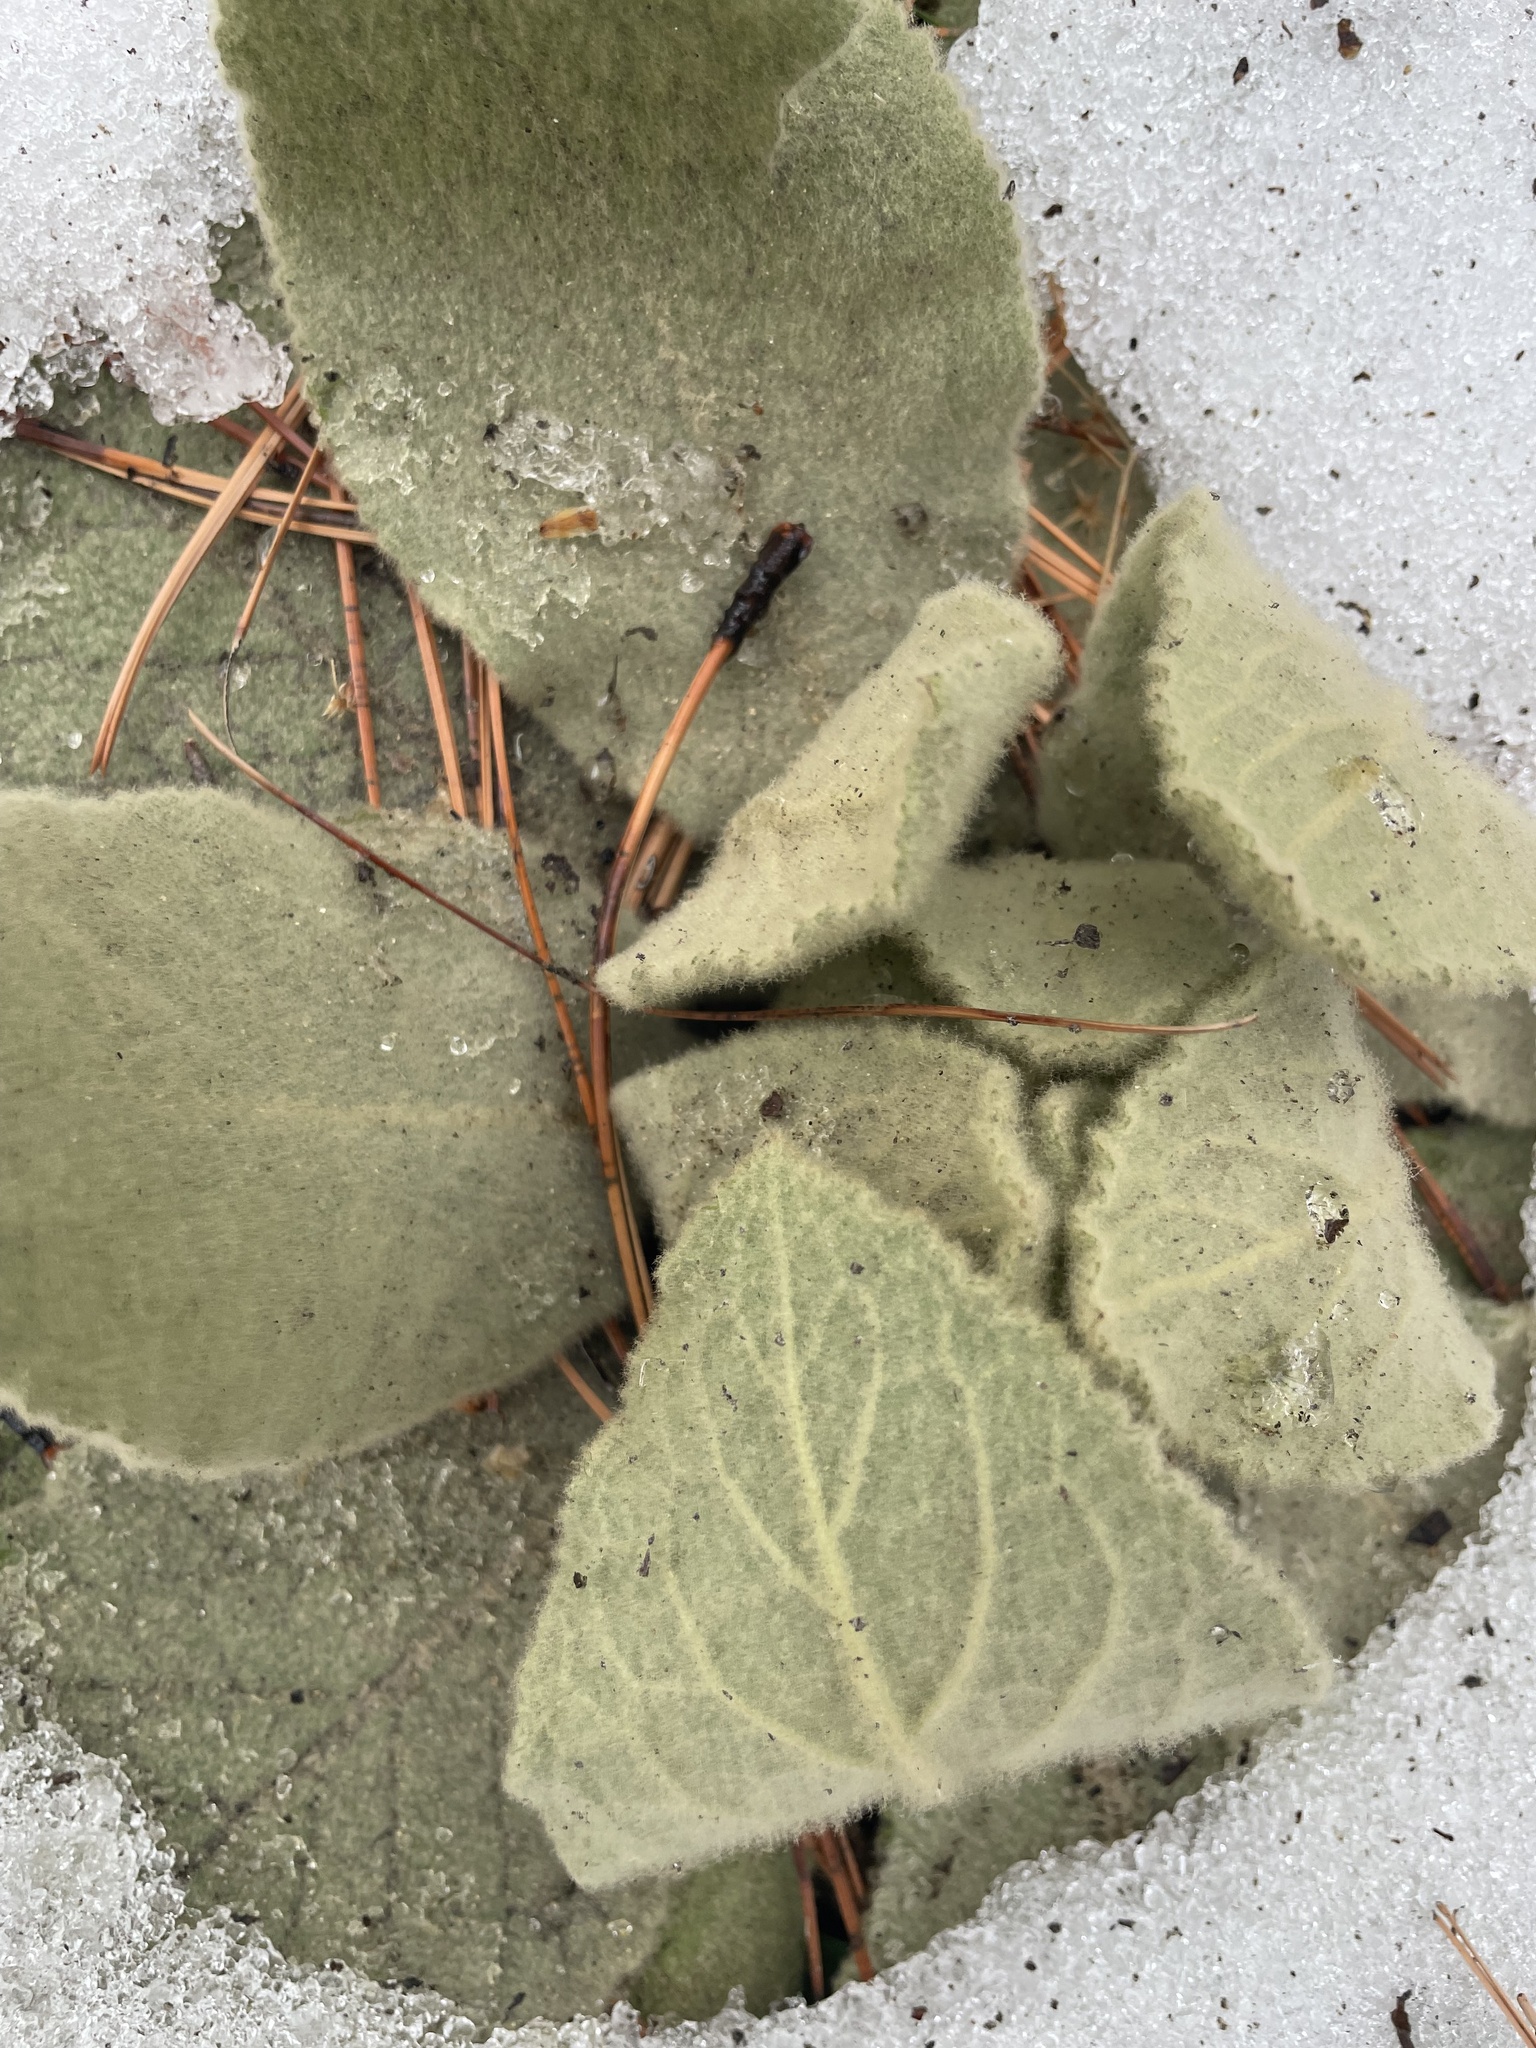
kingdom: Plantae
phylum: Tracheophyta
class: Magnoliopsida
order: Lamiales
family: Scrophulariaceae
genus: Verbascum
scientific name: Verbascum thapsus
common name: Common mullein
